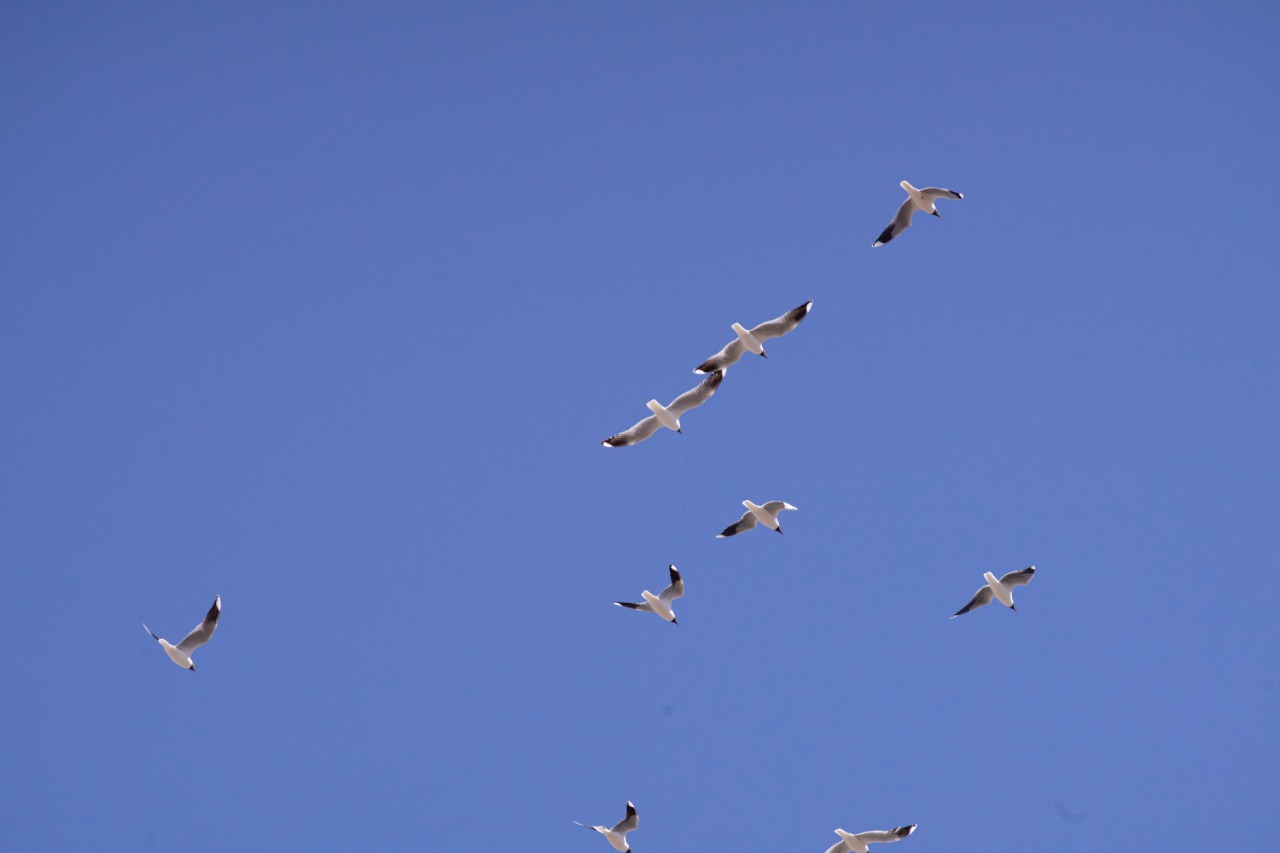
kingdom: Animalia
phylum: Chordata
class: Aves
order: Charadriiformes
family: Laridae
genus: Chroicocephalus
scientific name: Chroicocephalus maculipennis
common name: Brown-hooded gull
